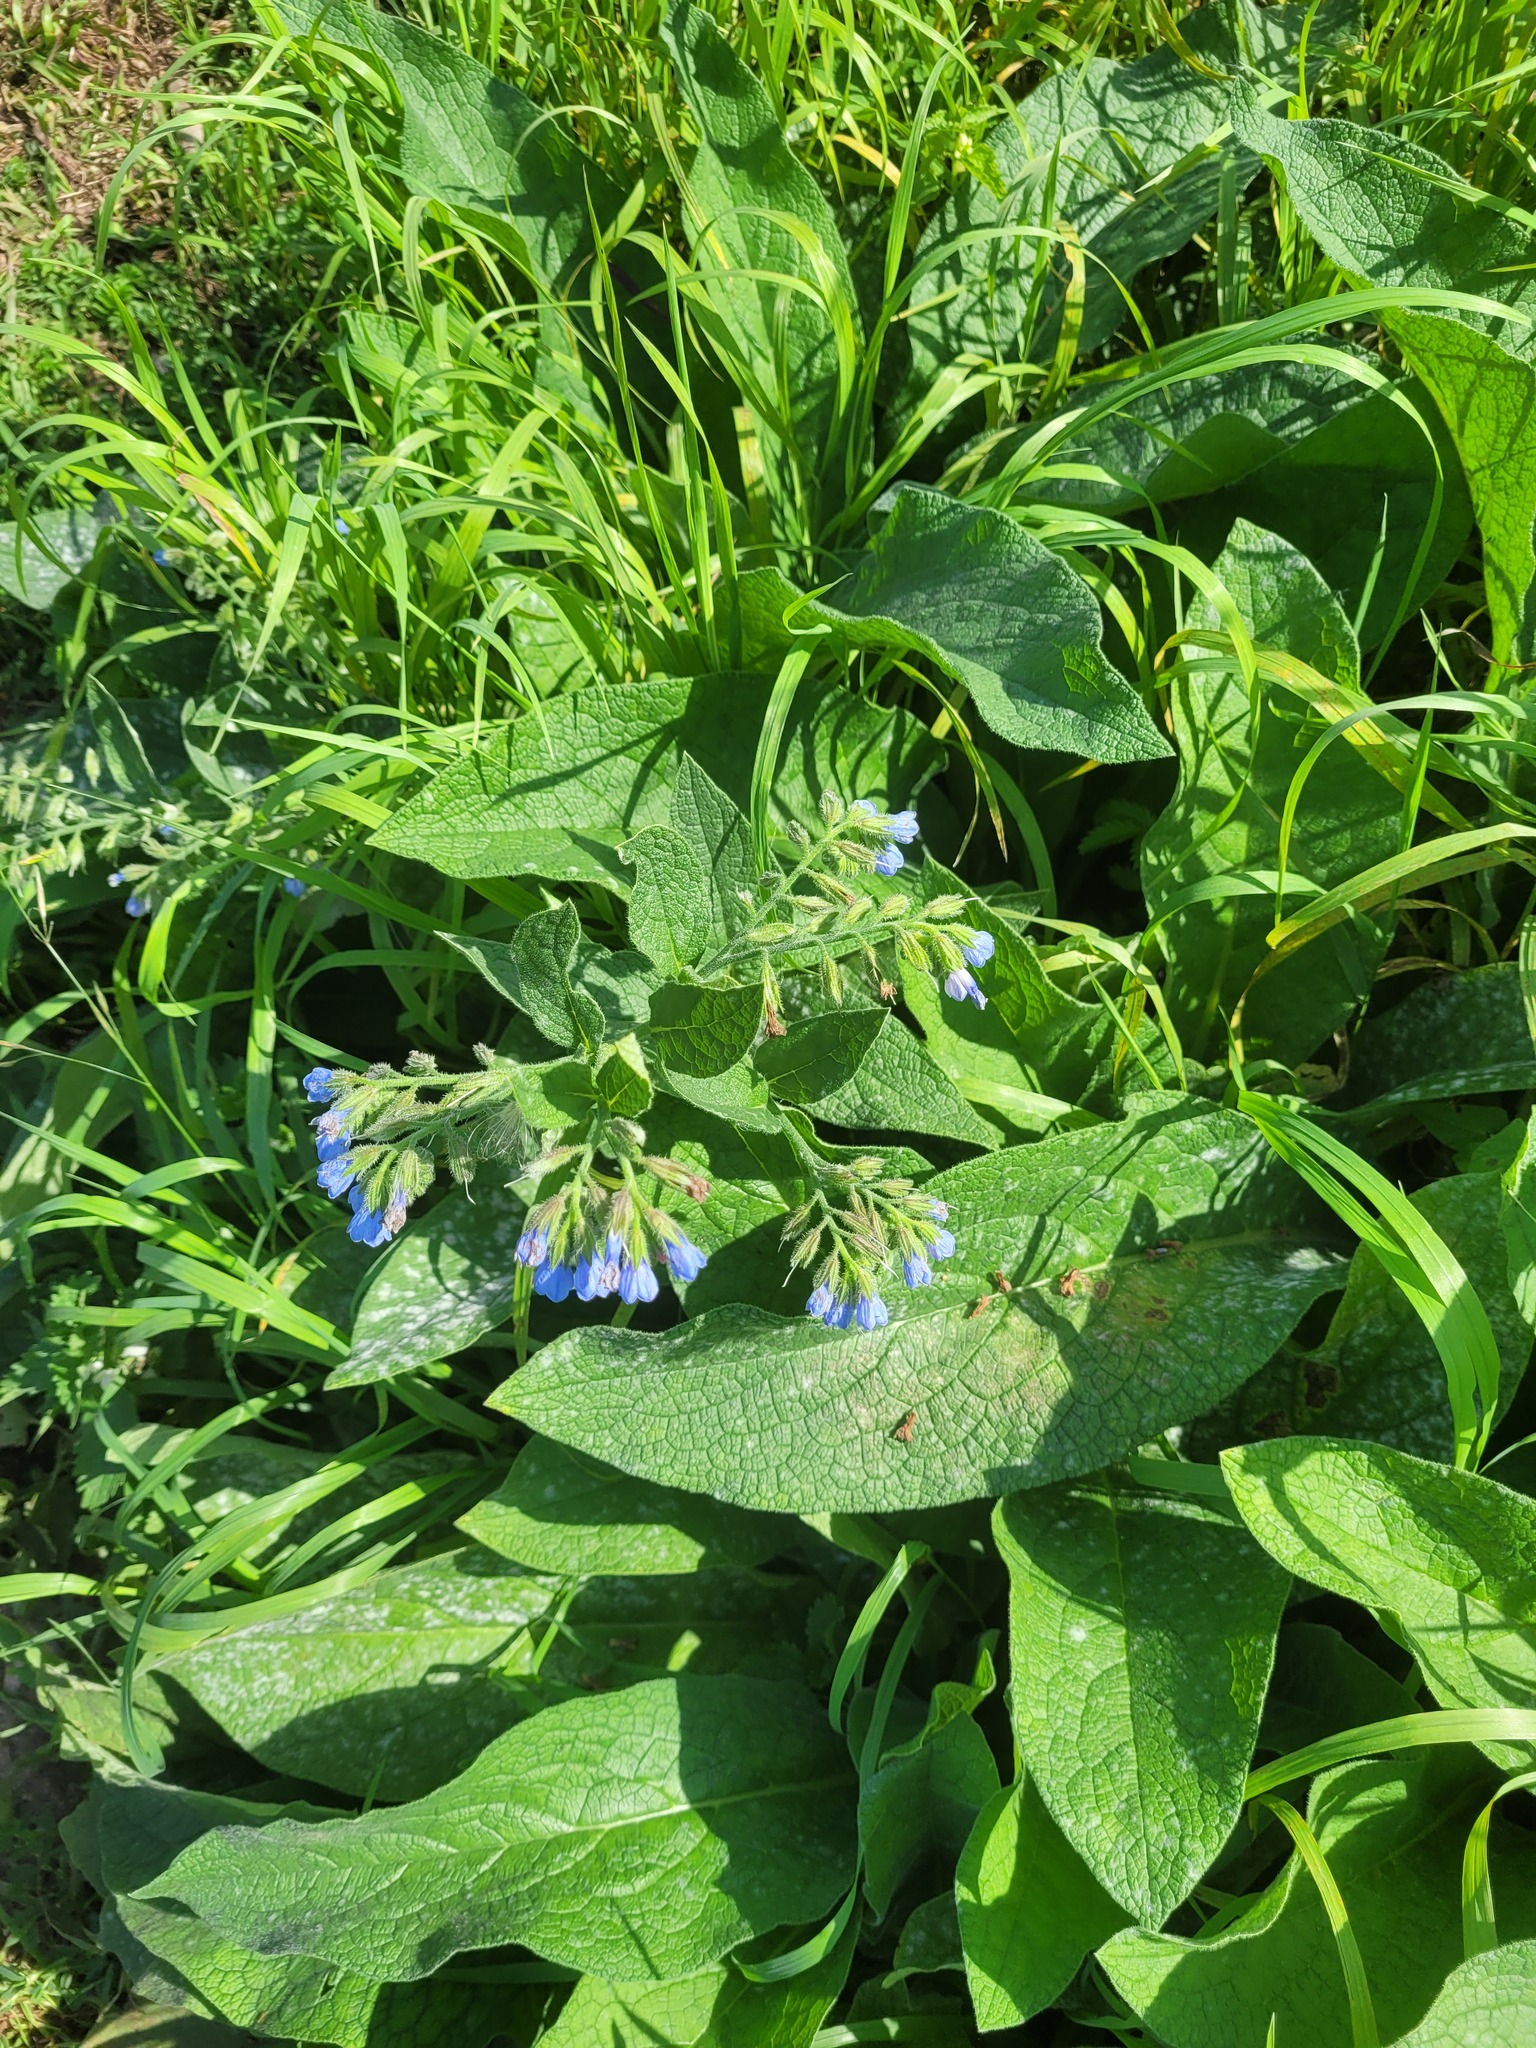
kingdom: Plantae
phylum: Tracheophyta
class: Magnoliopsida
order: Boraginales
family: Boraginaceae
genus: Symphytum
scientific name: Symphytum caucasicum
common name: Caucasian comfrey
